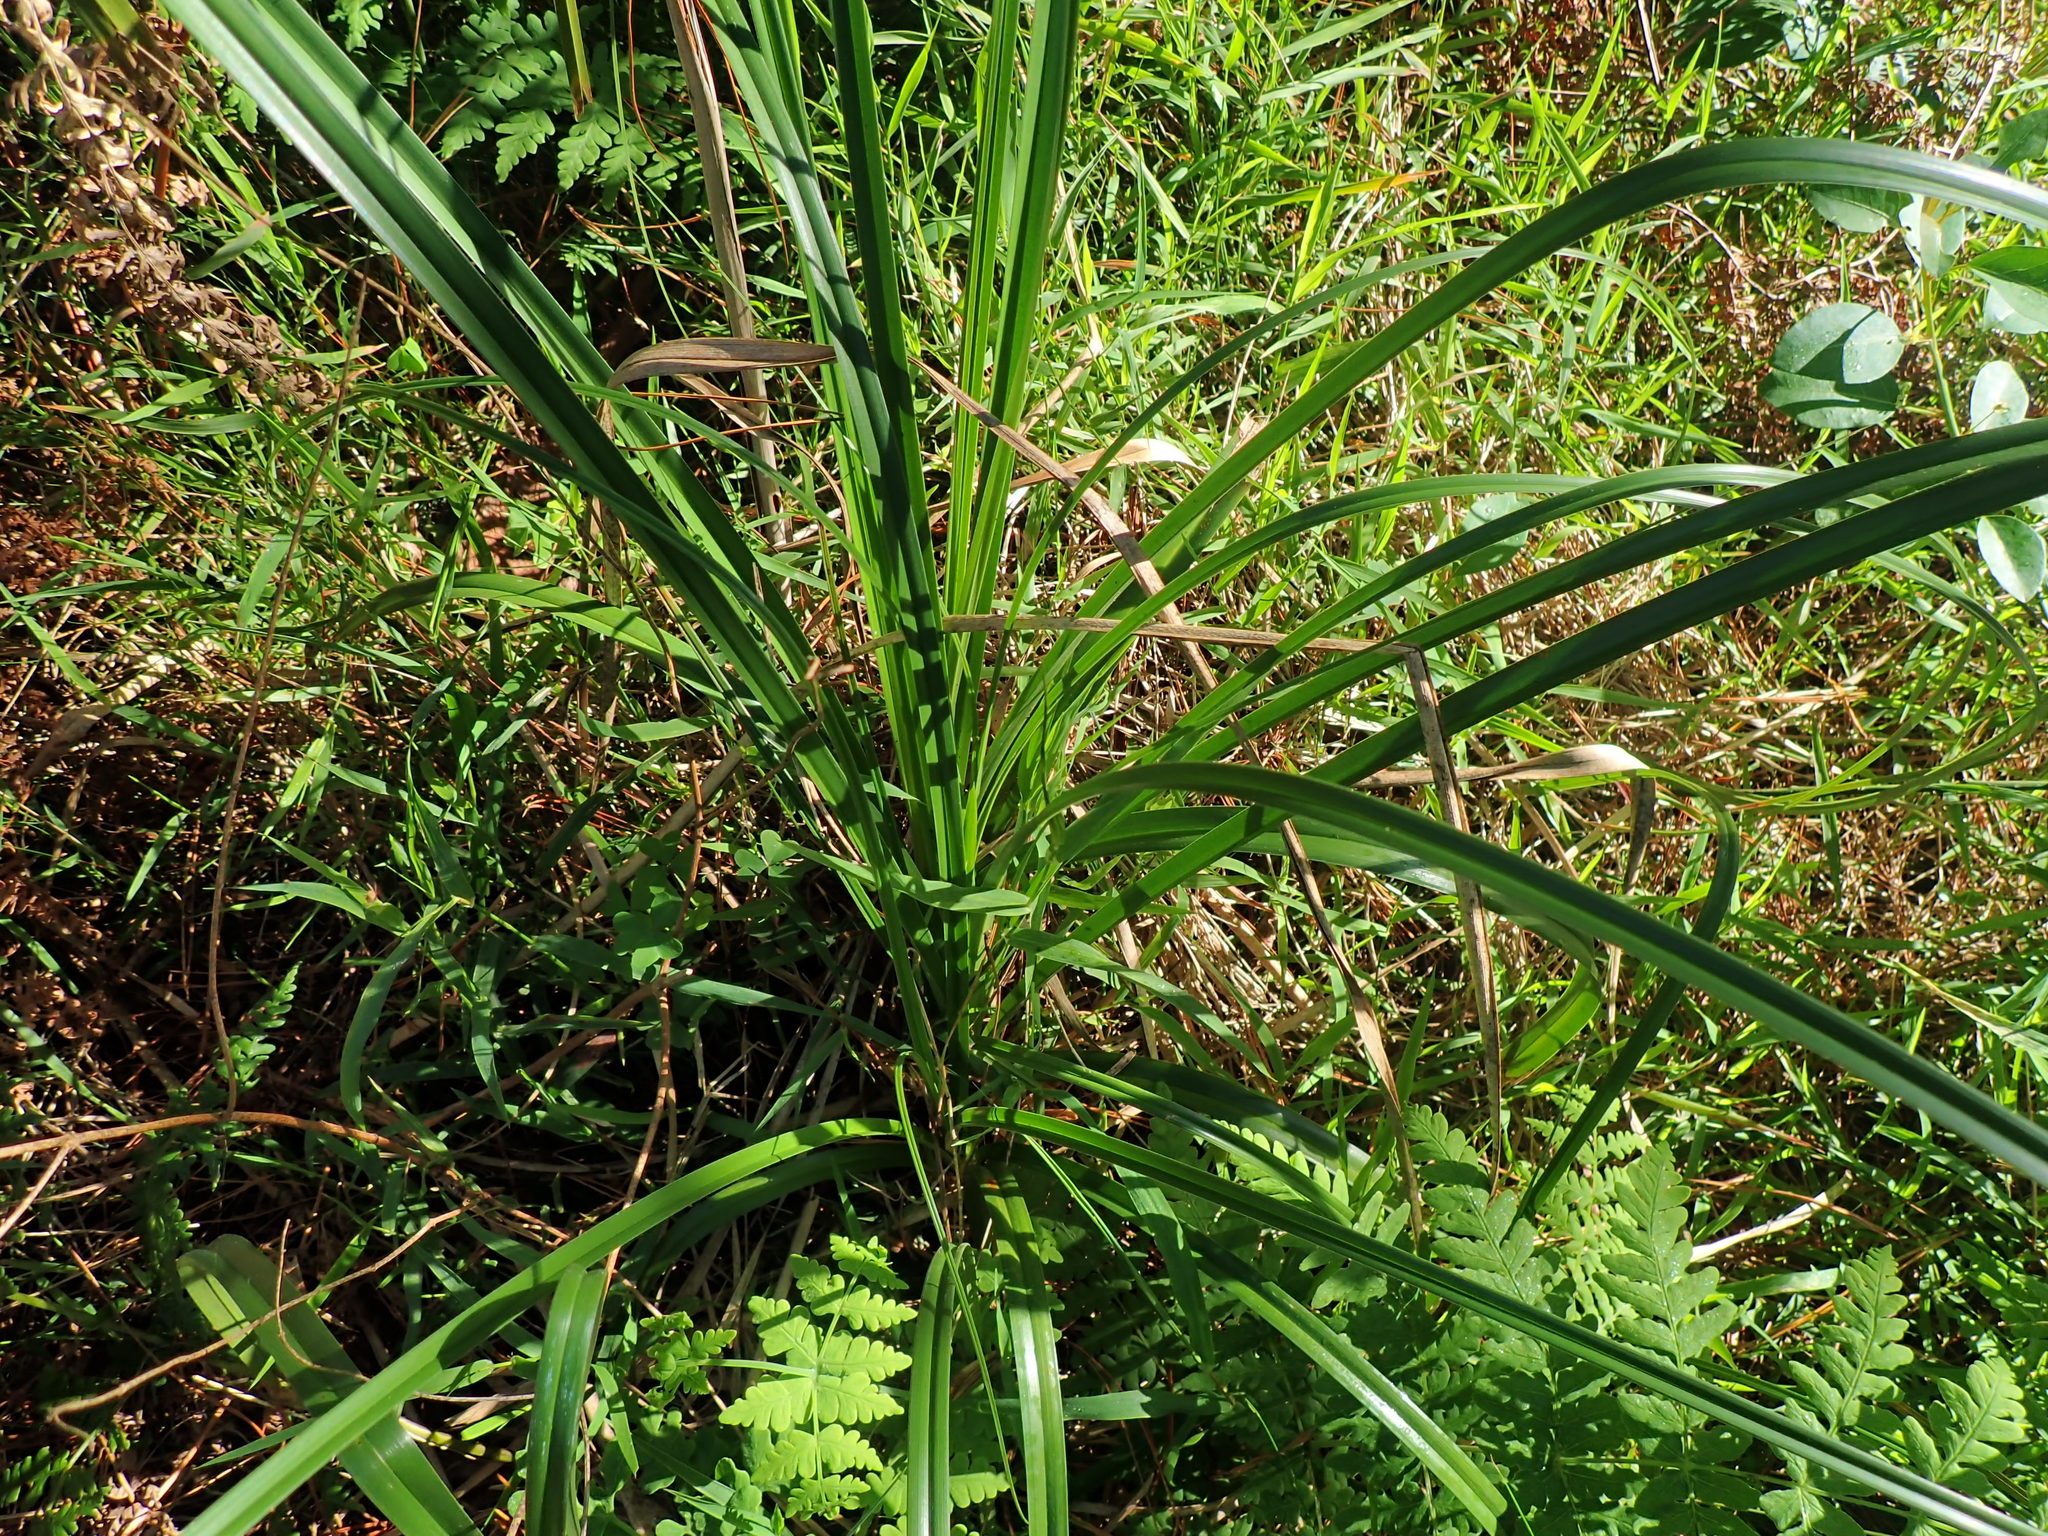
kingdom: Plantae
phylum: Tracheophyta
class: Liliopsida
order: Poales
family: Cyperaceae
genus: Cyperus
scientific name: Cyperus congestus
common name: Dense flat sedge
